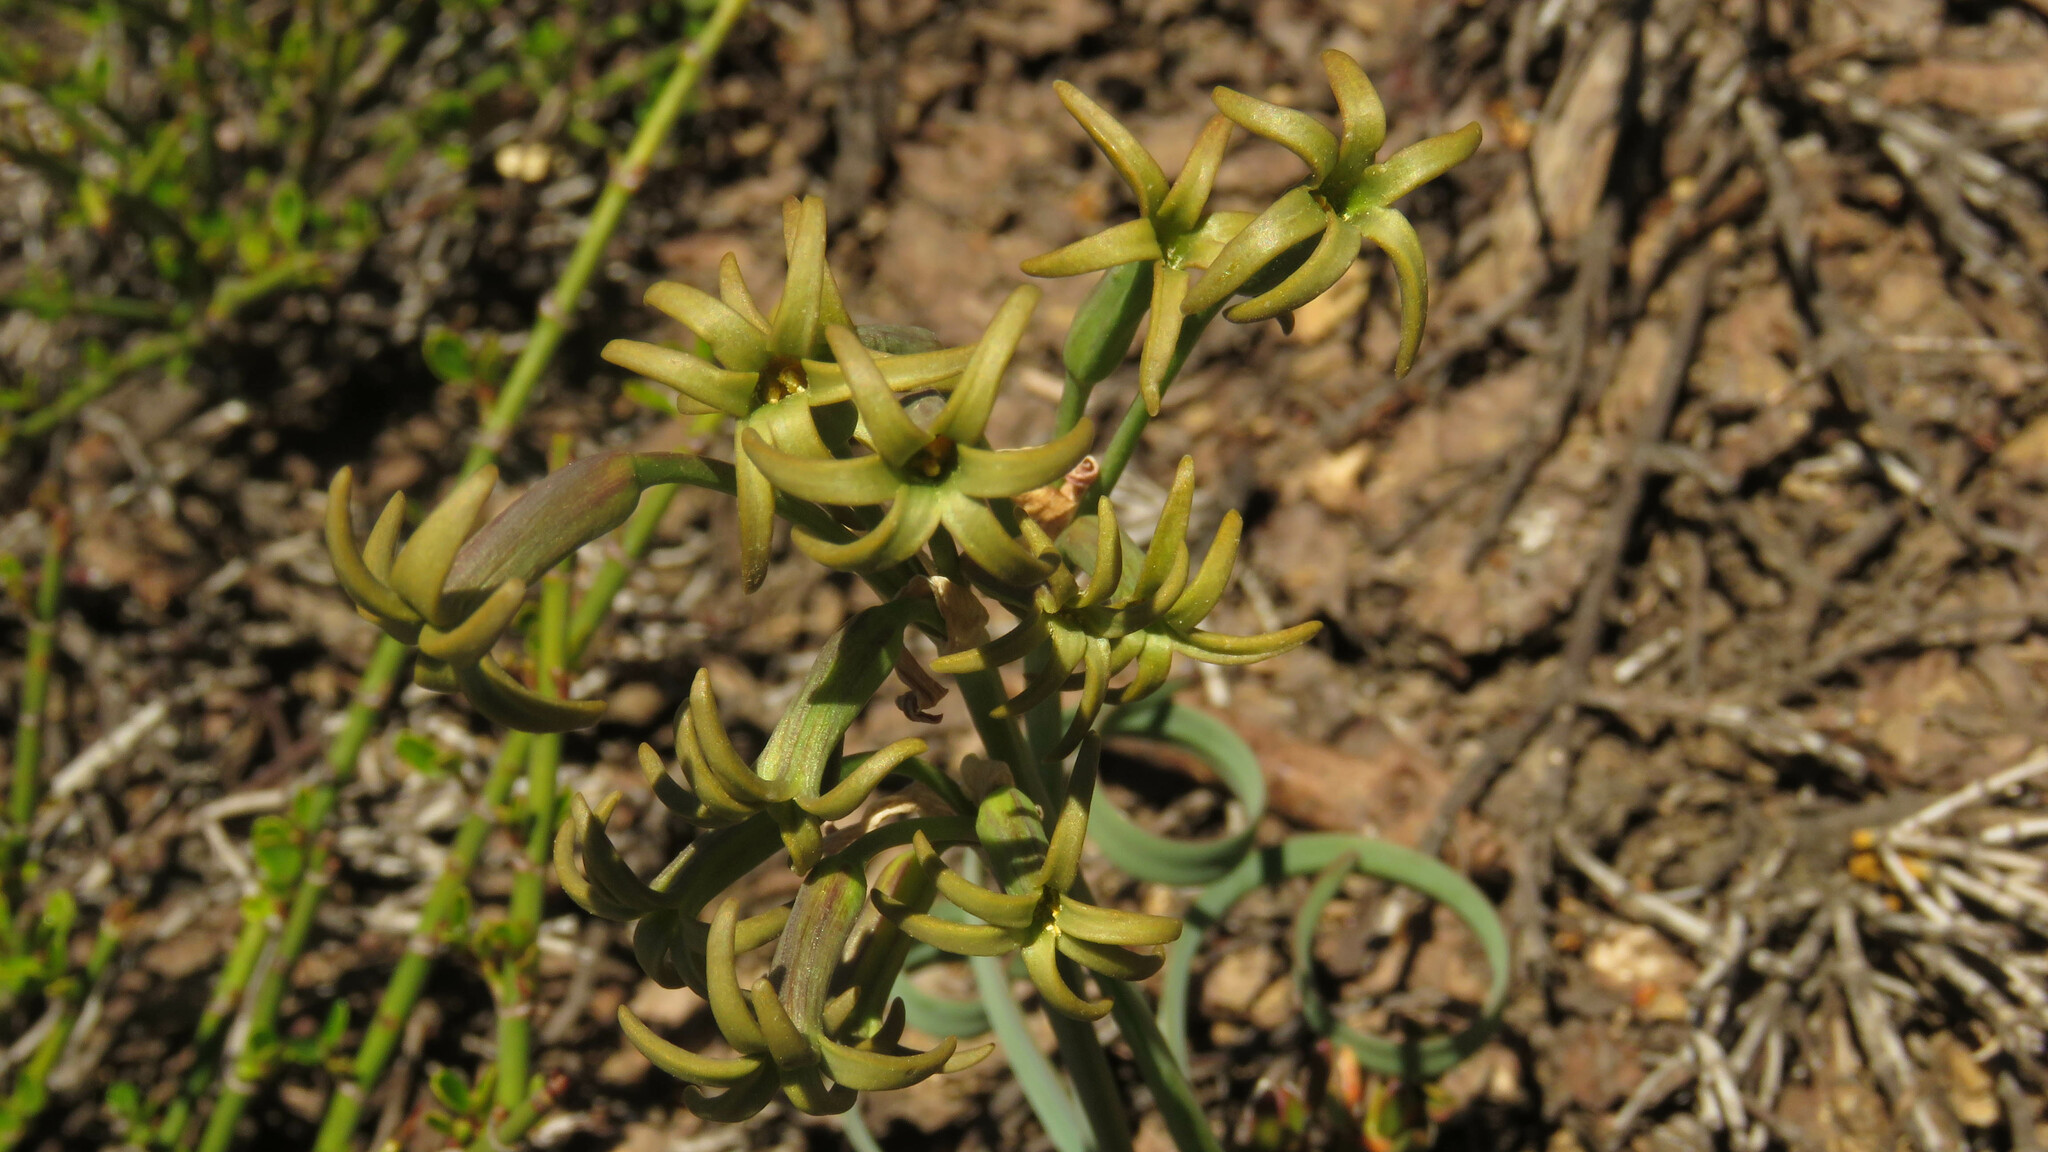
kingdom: Plantae
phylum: Tracheophyta
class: Liliopsida
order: Asparagales
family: Amaryllidaceae
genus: Tristagma
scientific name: Tristagma nivale
